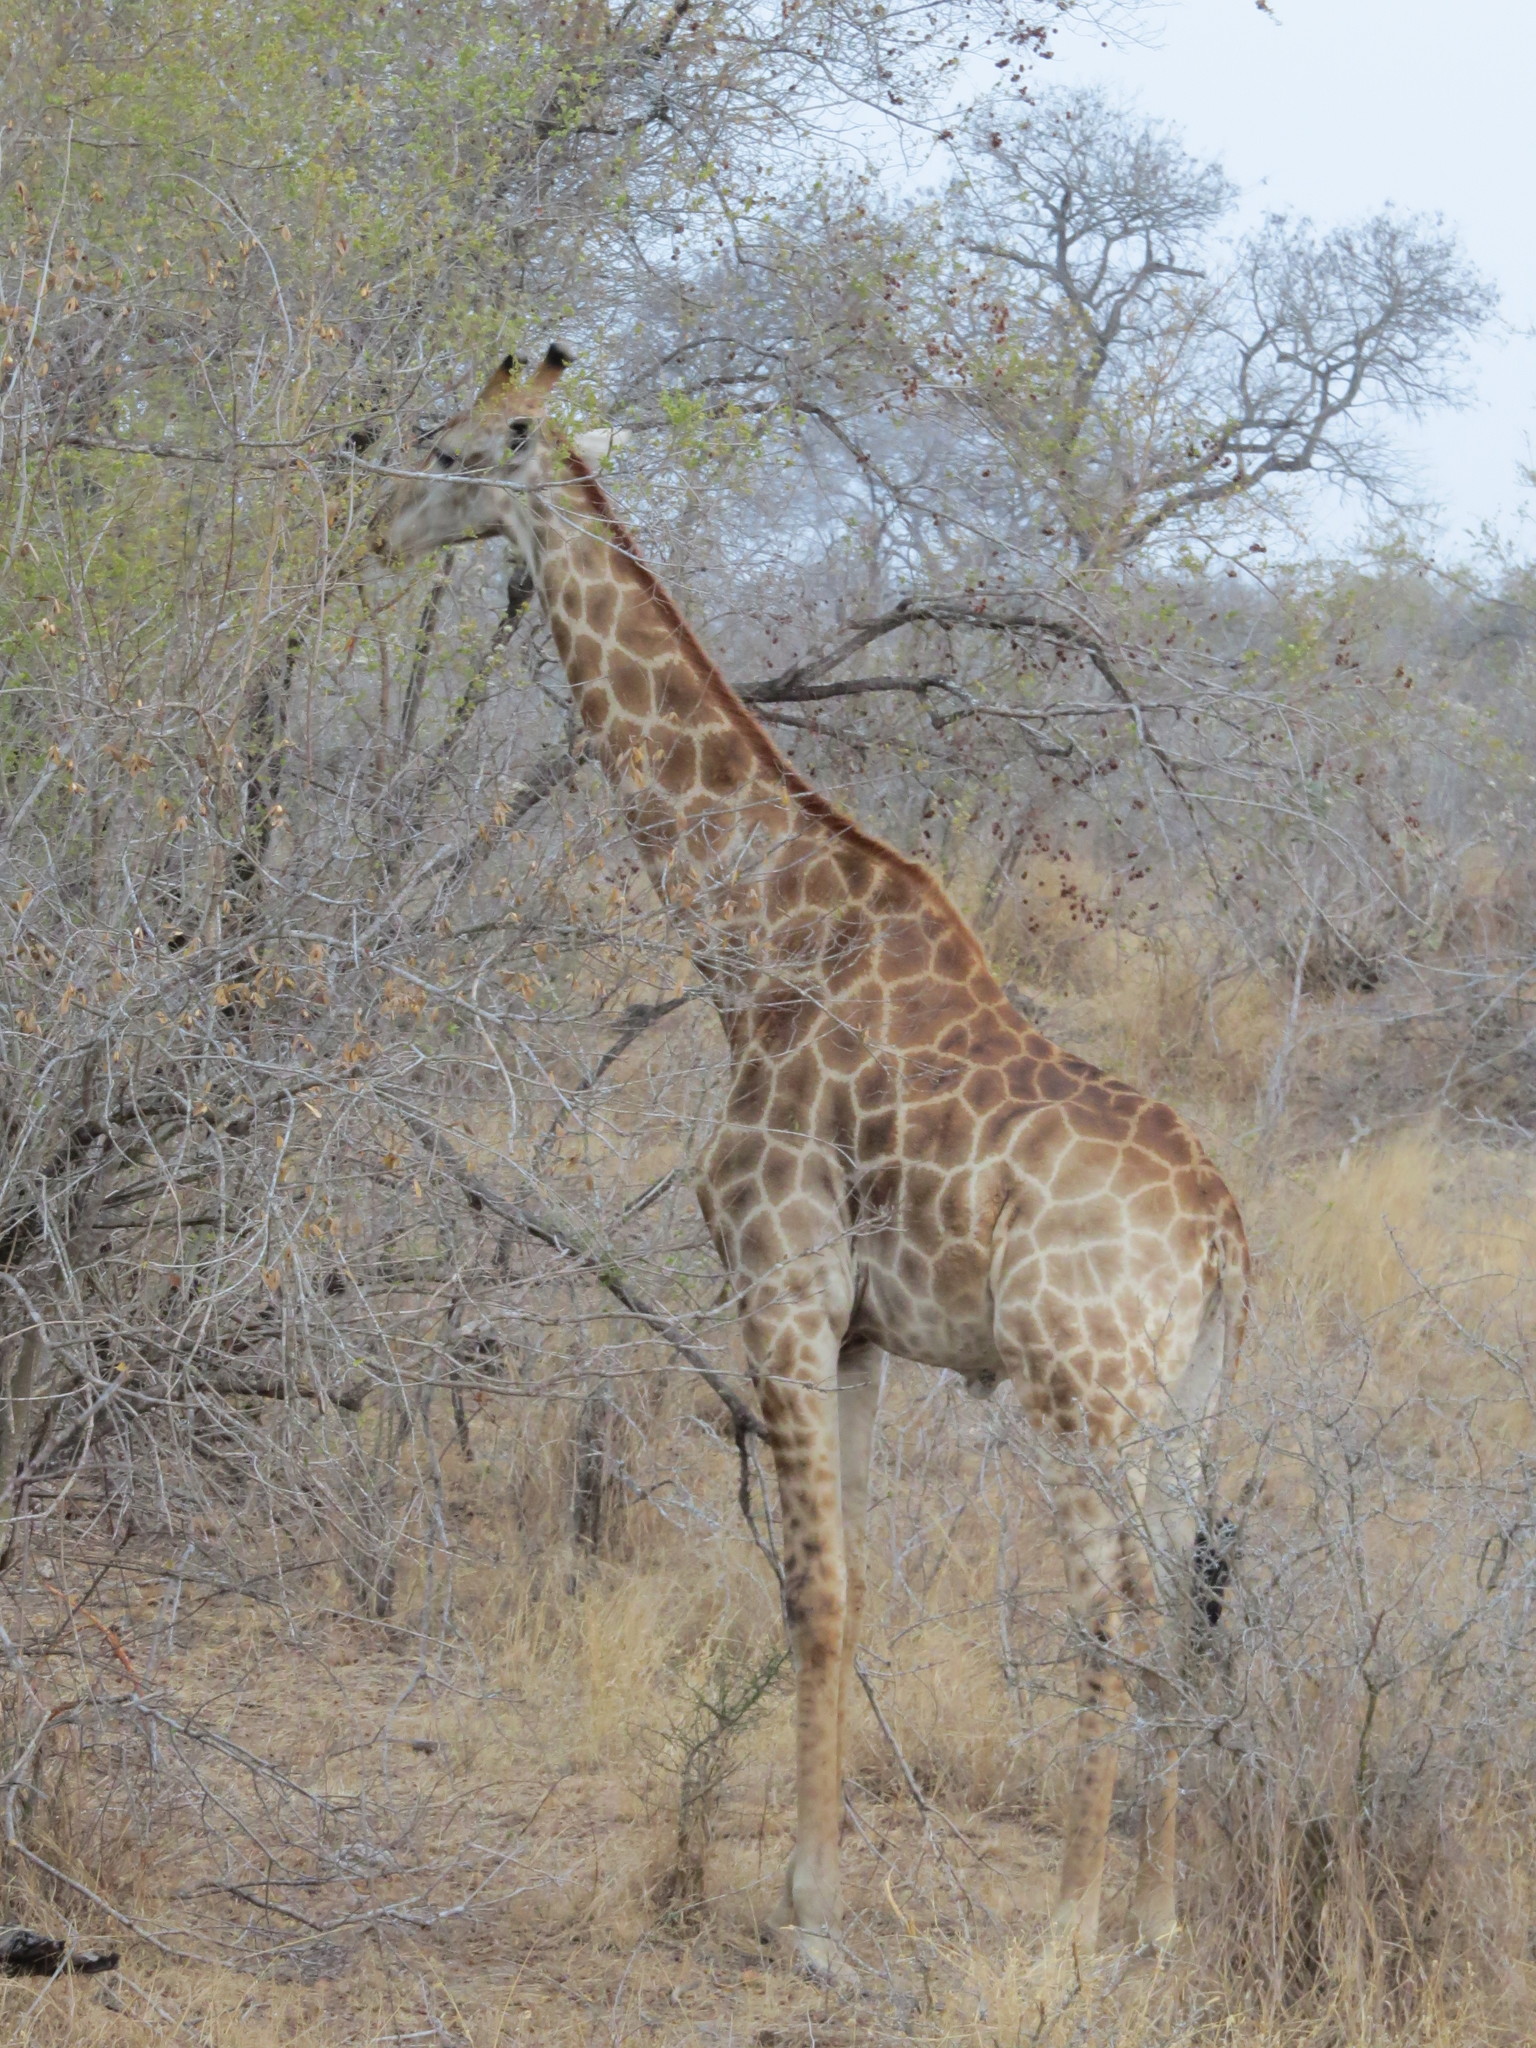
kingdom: Animalia
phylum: Chordata
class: Mammalia
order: Artiodactyla
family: Giraffidae
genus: Giraffa
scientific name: Giraffa giraffa
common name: Southern giraffe
